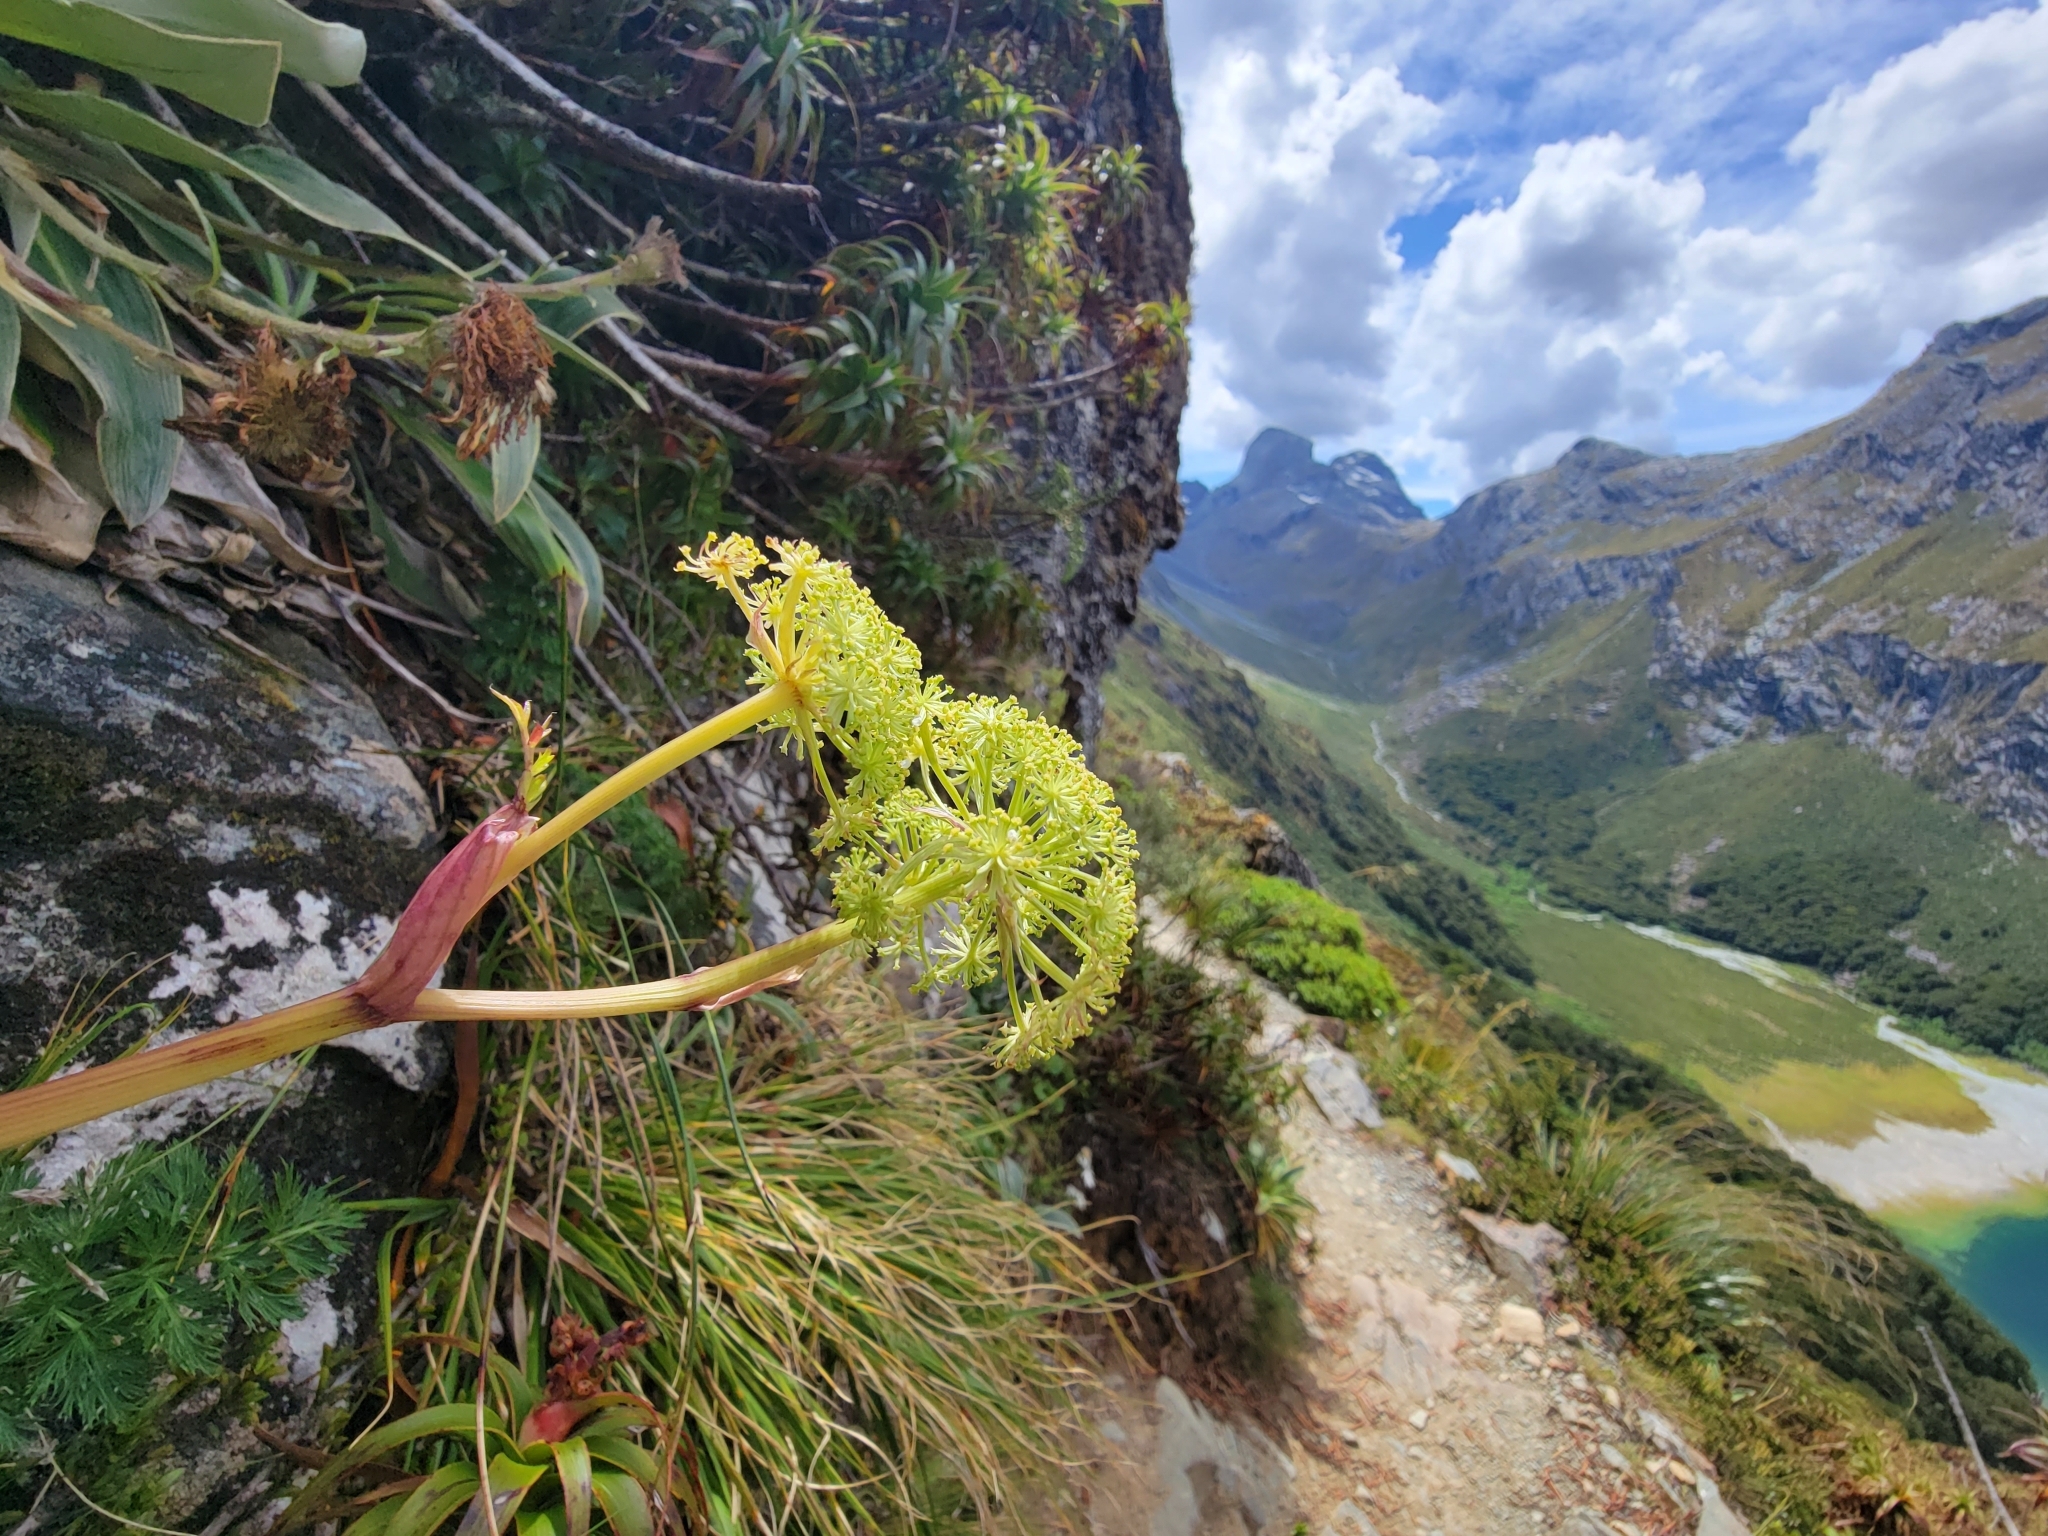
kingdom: Plantae
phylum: Tracheophyta
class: Magnoliopsida
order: Apiales
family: Apiaceae
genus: Anisotome
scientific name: Anisotome haastii
